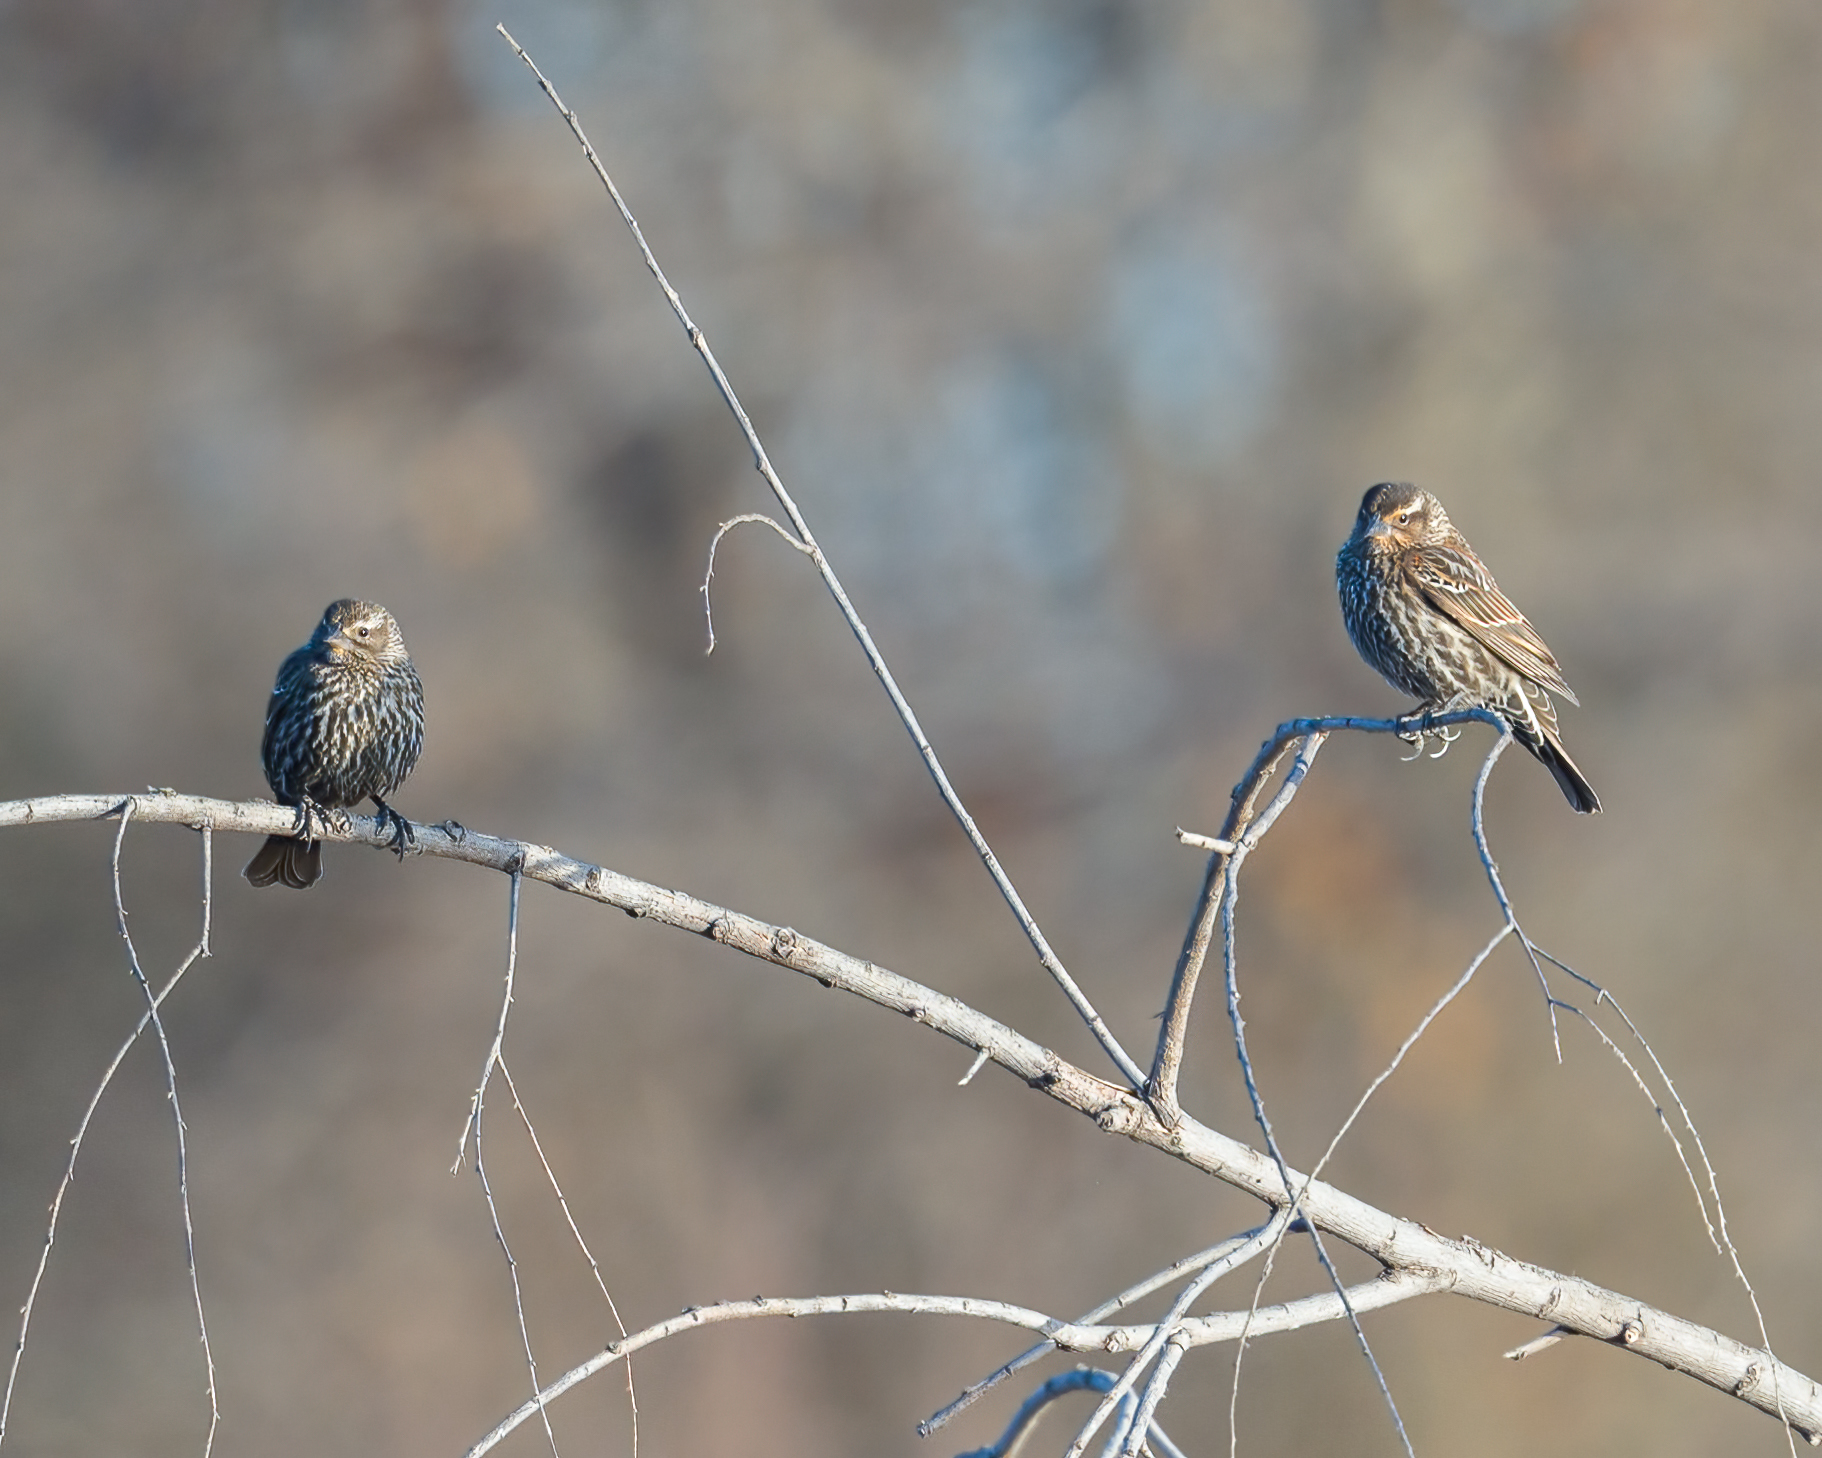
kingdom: Animalia
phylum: Chordata
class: Aves
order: Passeriformes
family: Icteridae
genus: Agelaius
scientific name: Agelaius phoeniceus
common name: Red-winged blackbird
